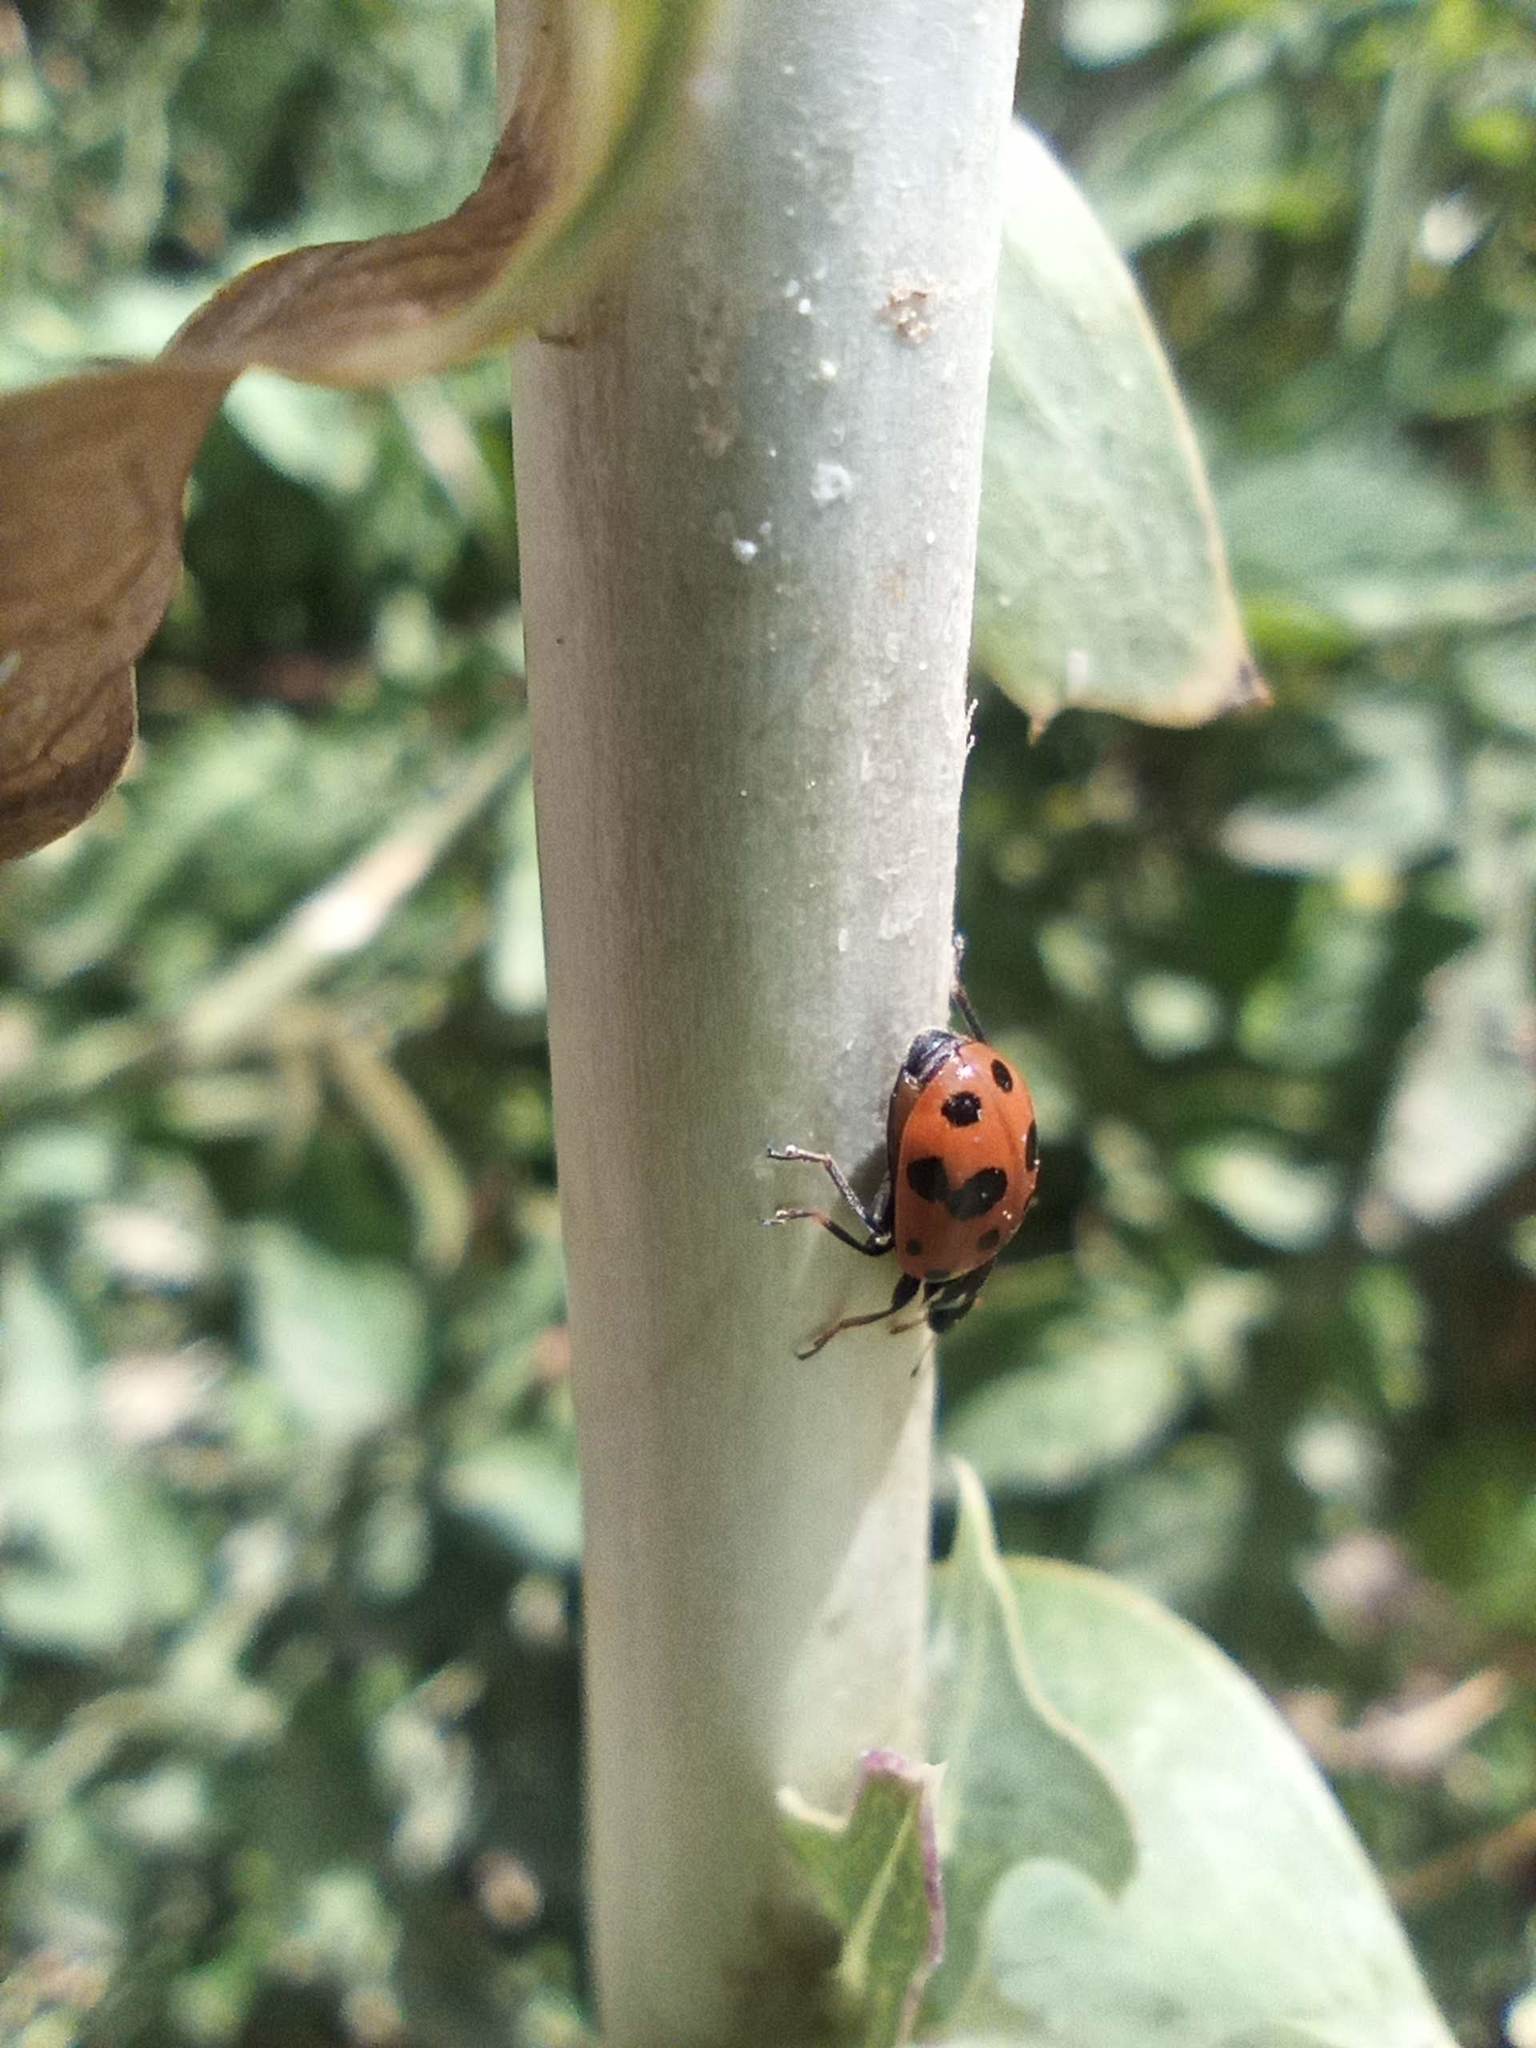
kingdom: Animalia
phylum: Arthropoda
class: Insecta
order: Coleoptera
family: Coccinellidae
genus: Hippodamia
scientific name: Hippodamia variegata
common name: Ladybird beetle
